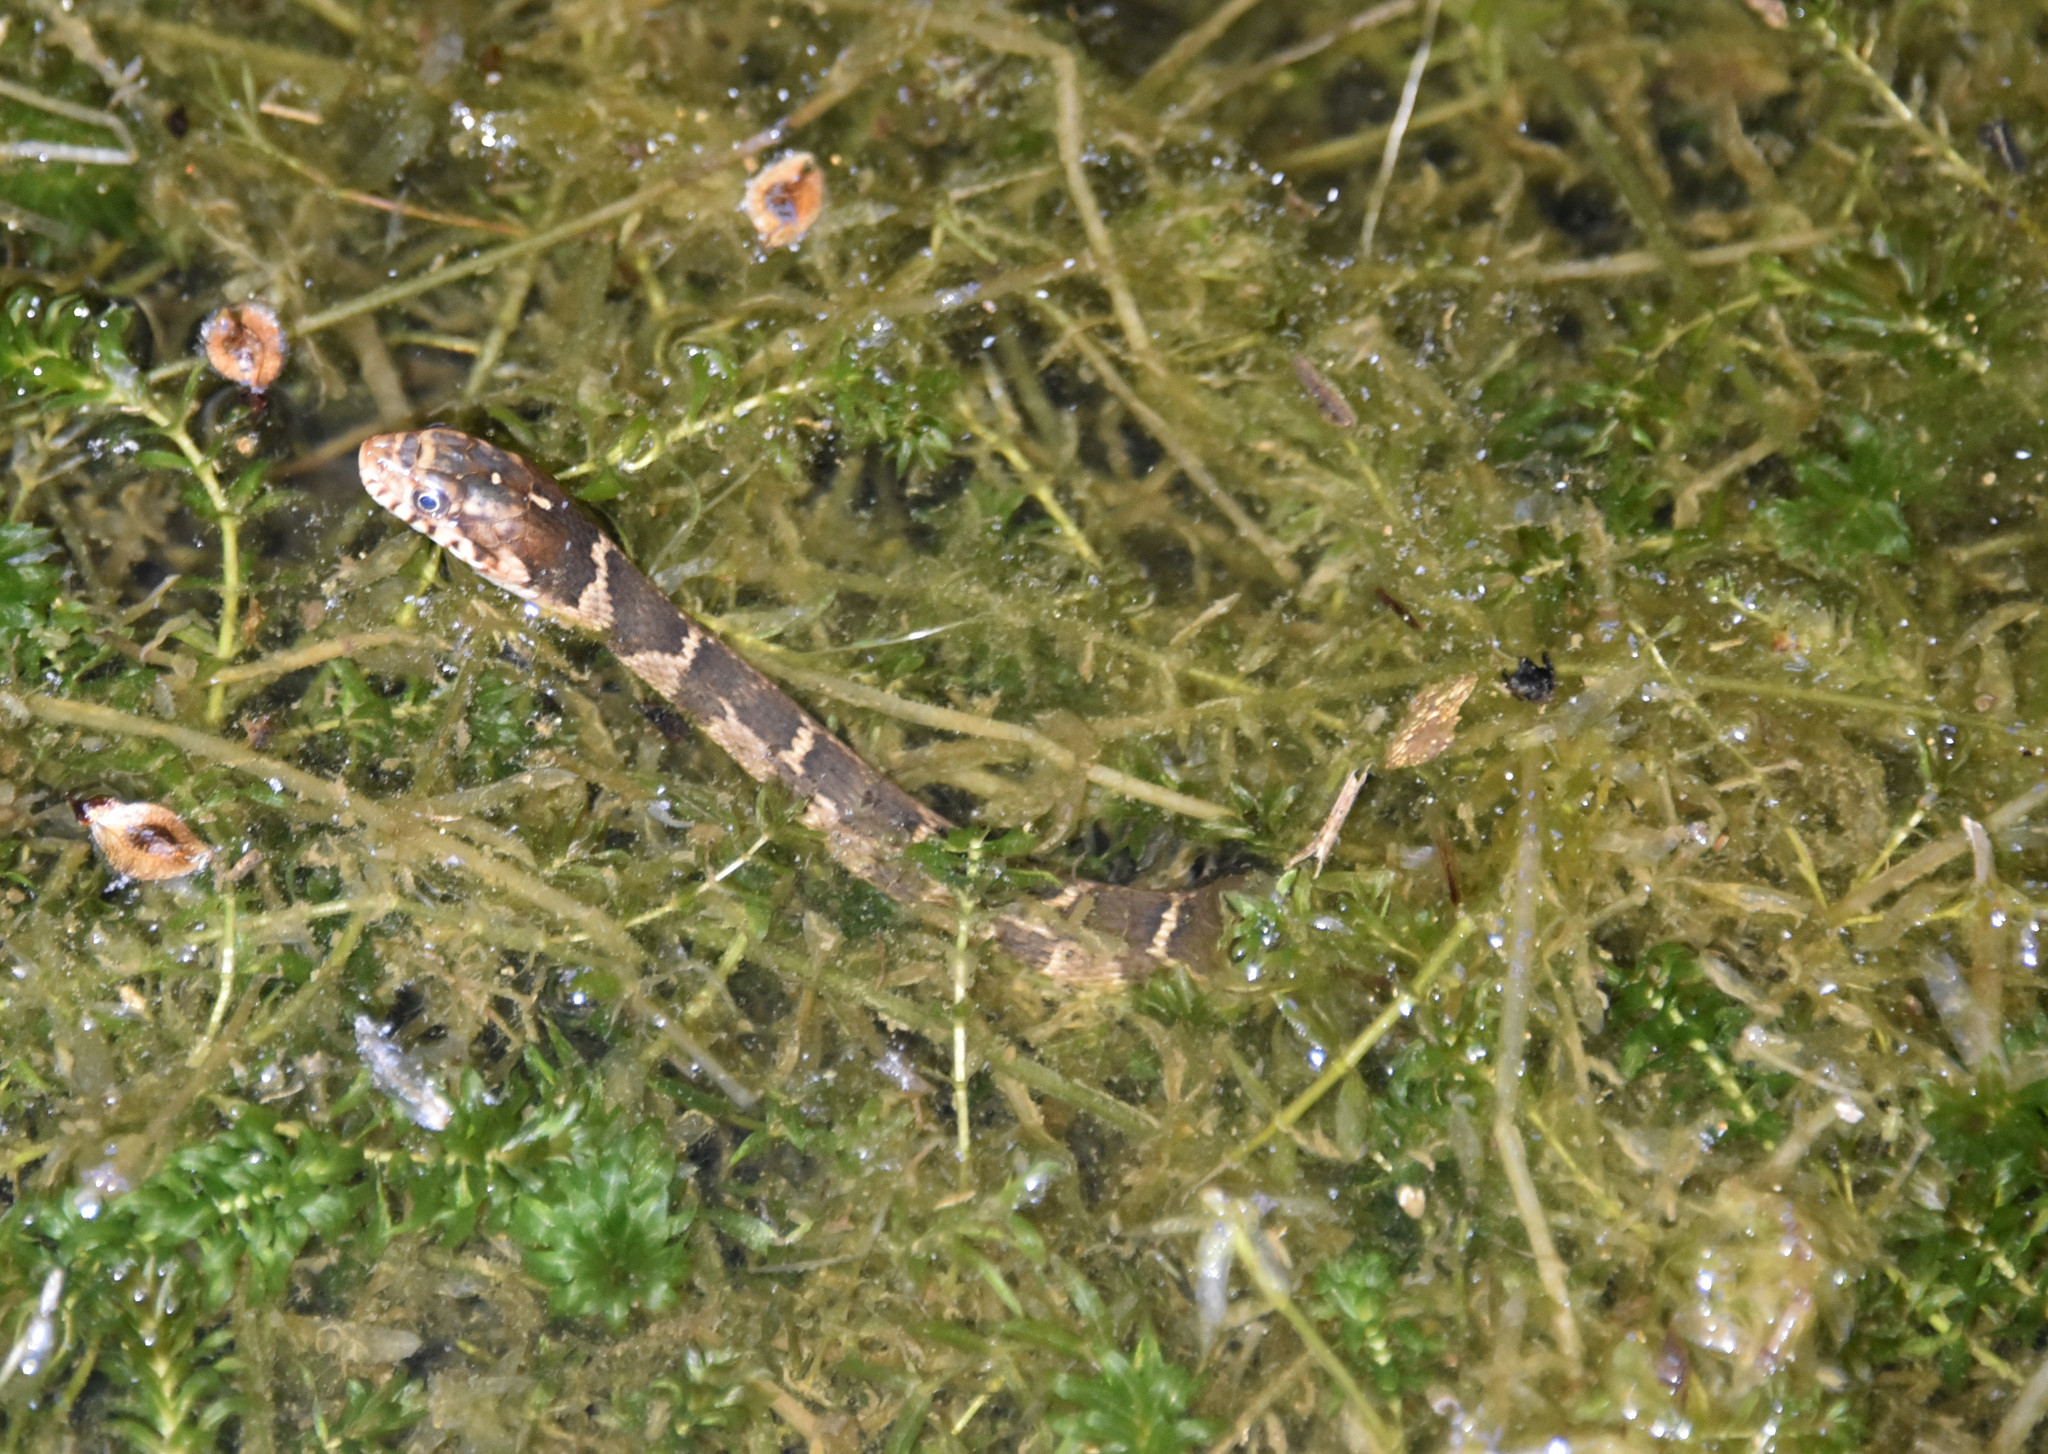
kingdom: Animalia
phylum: Chordata
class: Squamata
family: Colubridae
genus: Nerodia
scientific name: Nerodia erythrogaster
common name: Plainbelly water snake
